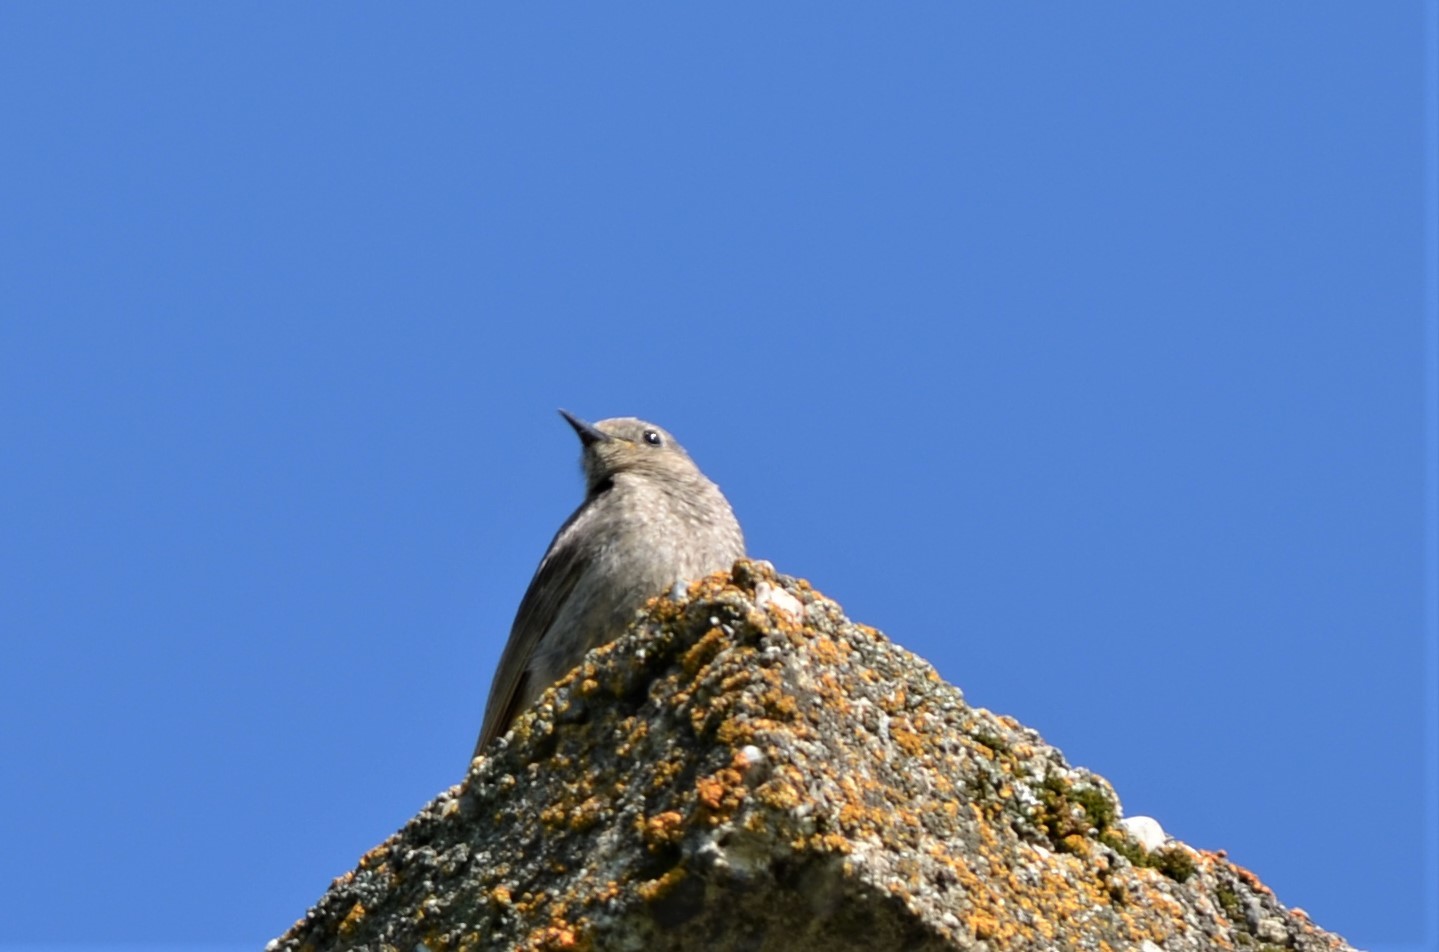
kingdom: Animalia
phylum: Chordata
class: Aves
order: Passeriformes
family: Muscicapidae
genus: Phoenicurus
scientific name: Phoenicurus ochruros
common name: Black redstart
